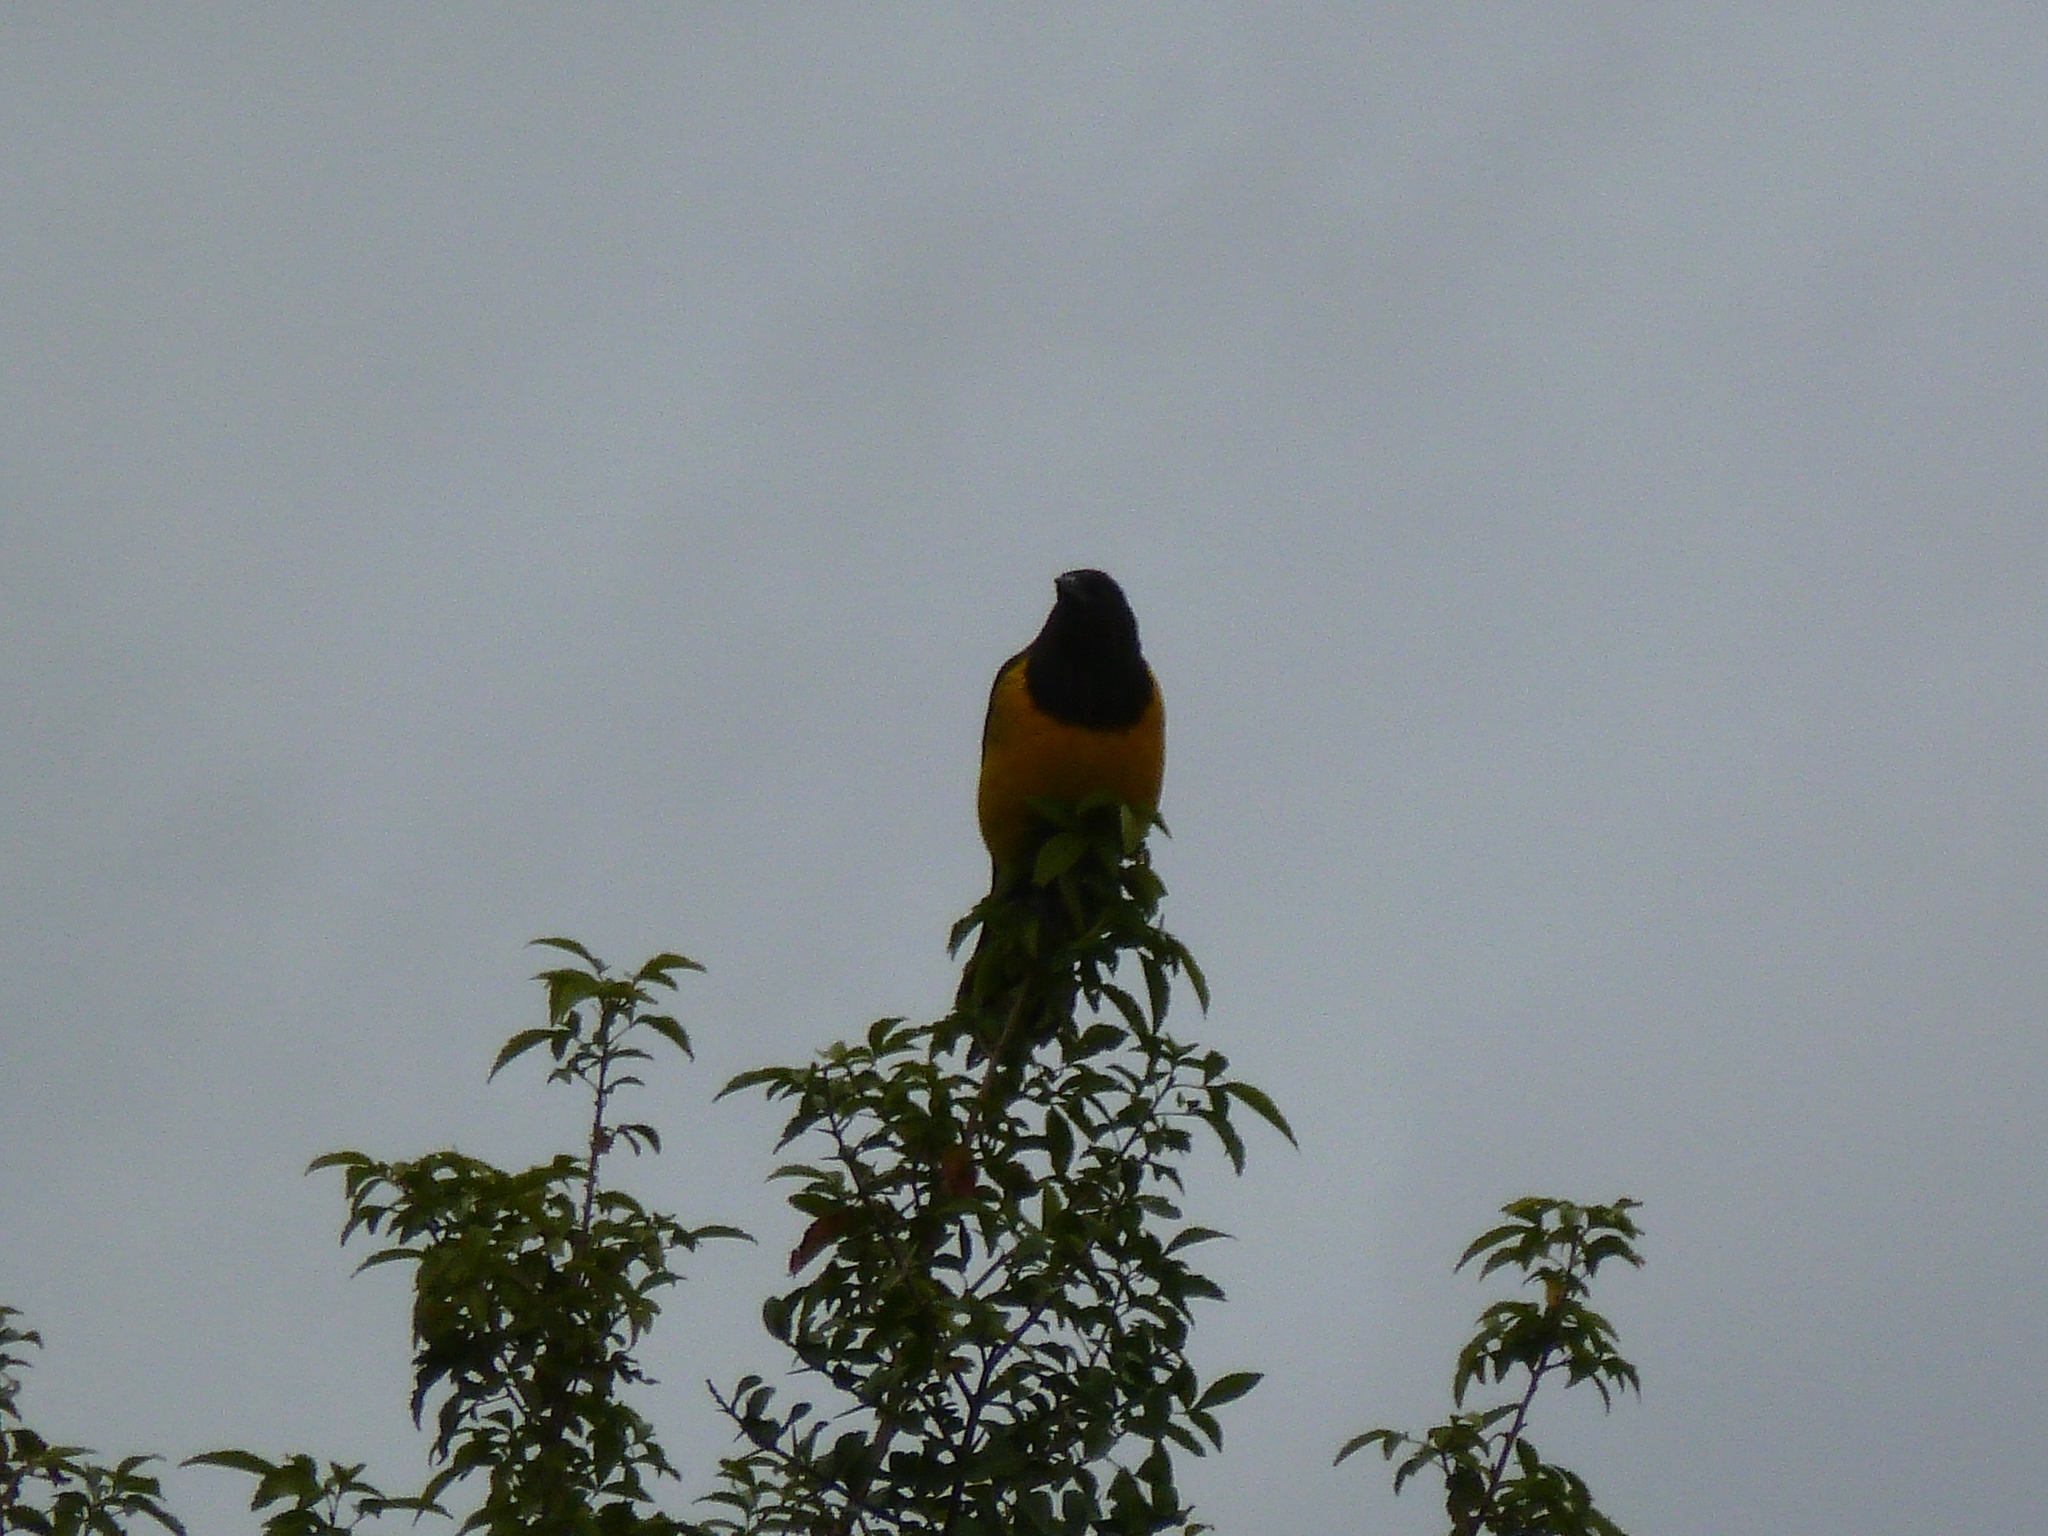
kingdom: Animalia
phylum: Chordata
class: Aves
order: Passeriformes
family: Icteridae
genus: Pseudoleistes
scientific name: Pseudoleistes virescens
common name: Brown-and-yellow marshbird
